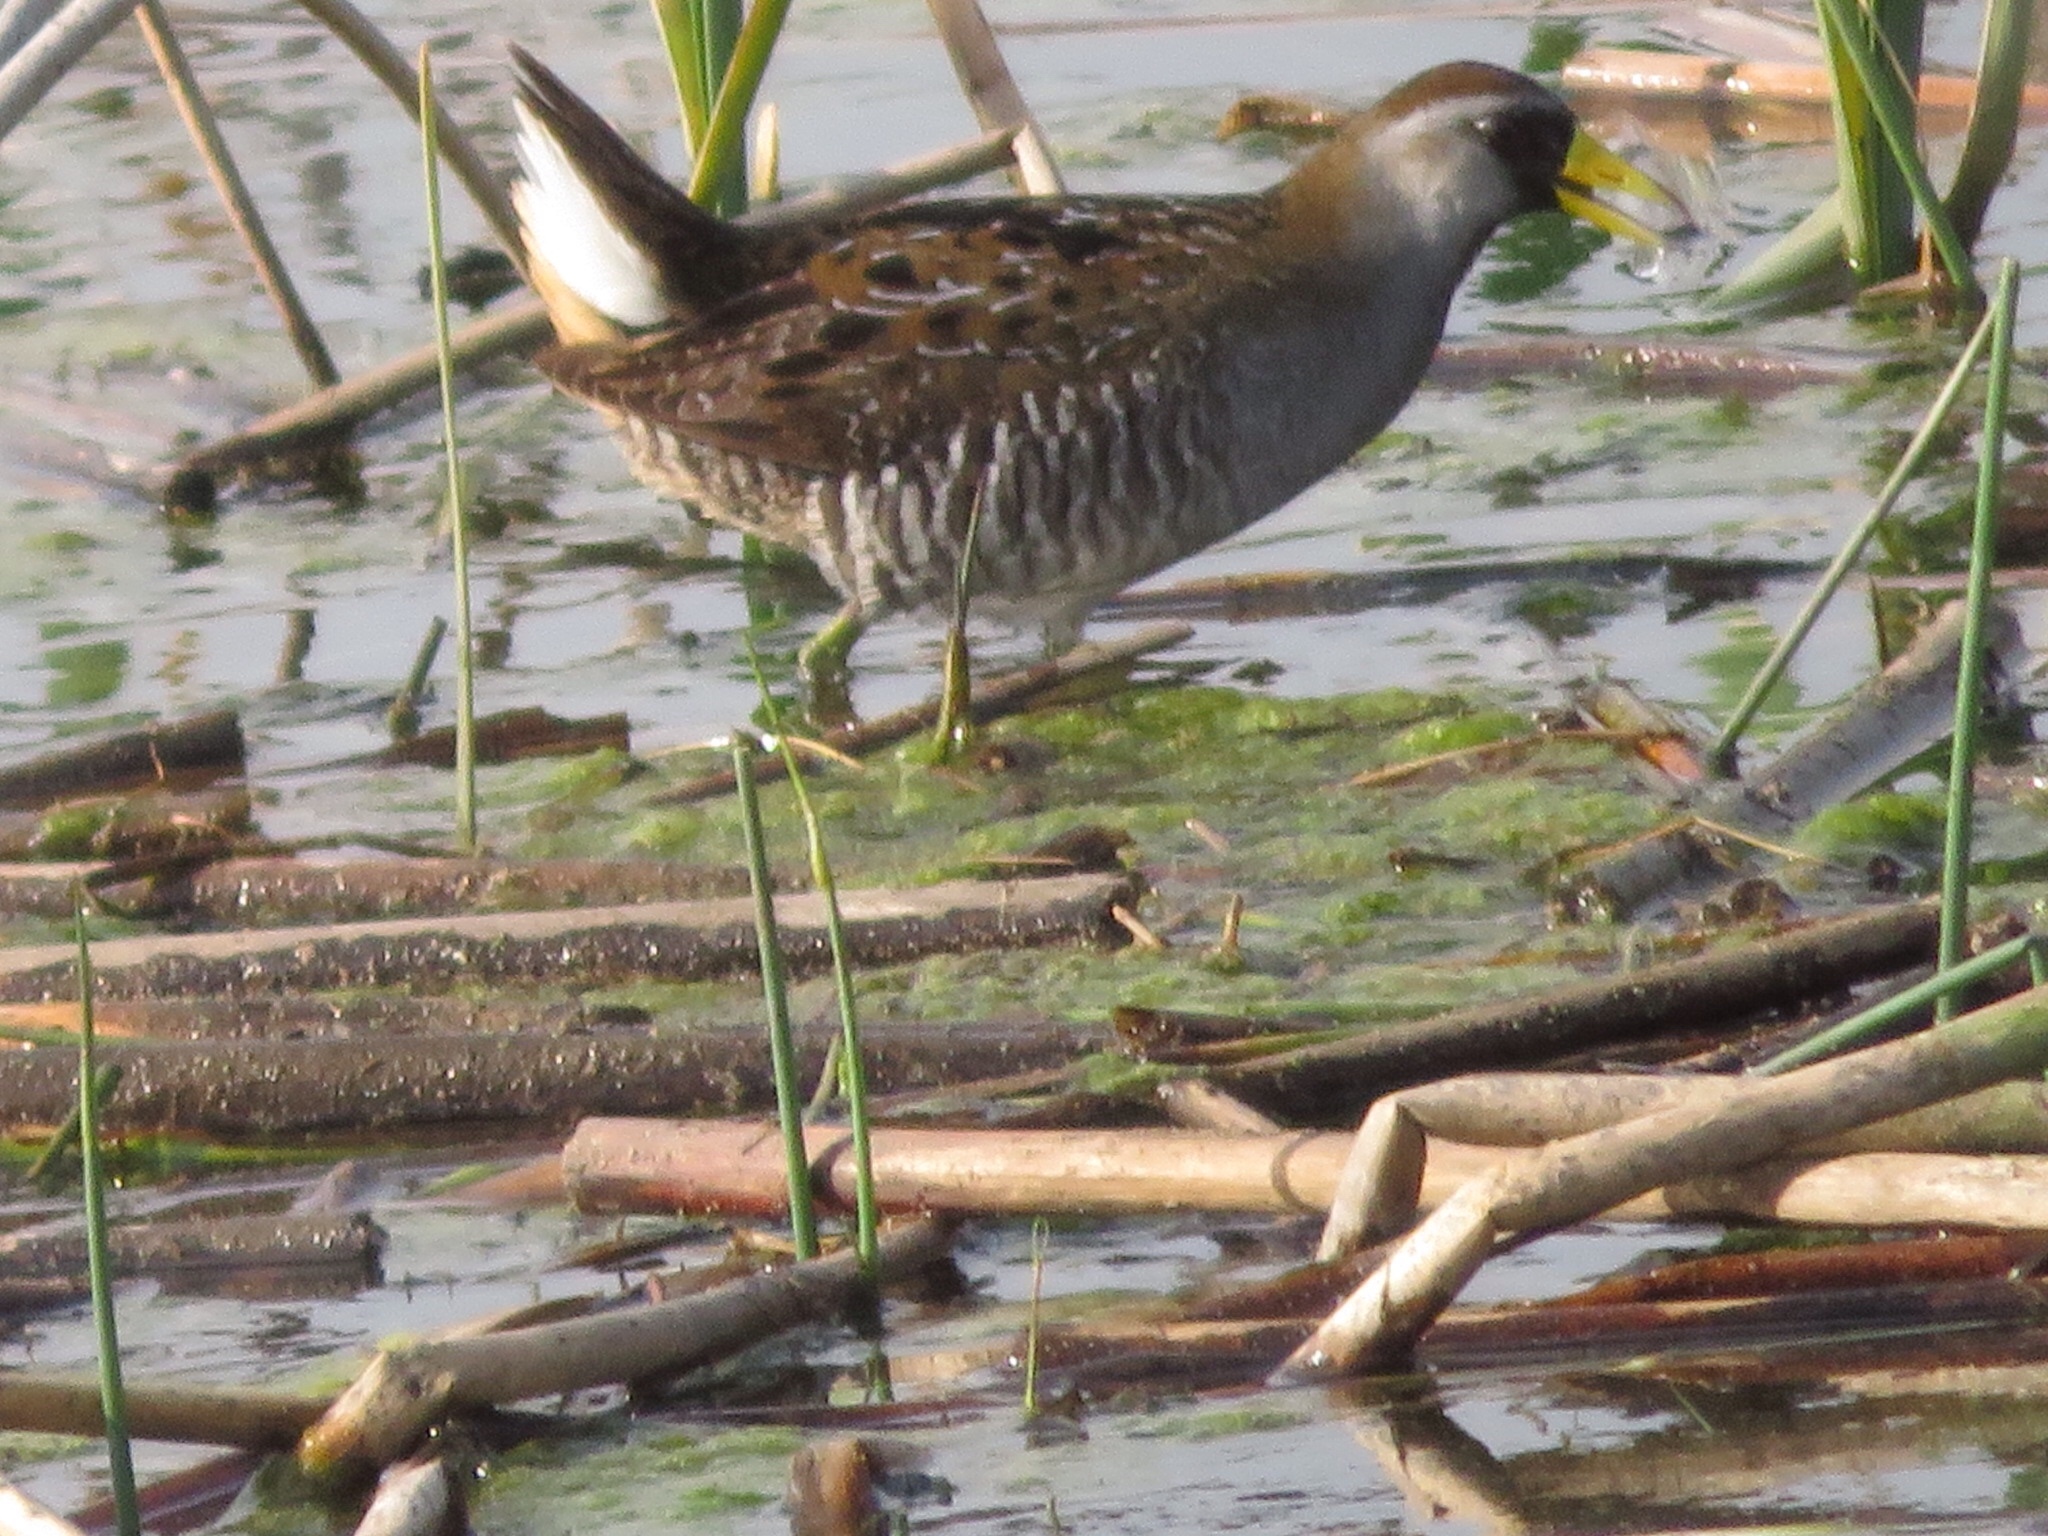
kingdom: Animalia
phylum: Chordata
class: Aves
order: Gruiformes
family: Rallidae
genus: Porzana
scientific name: Porzana carolina
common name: Sora
